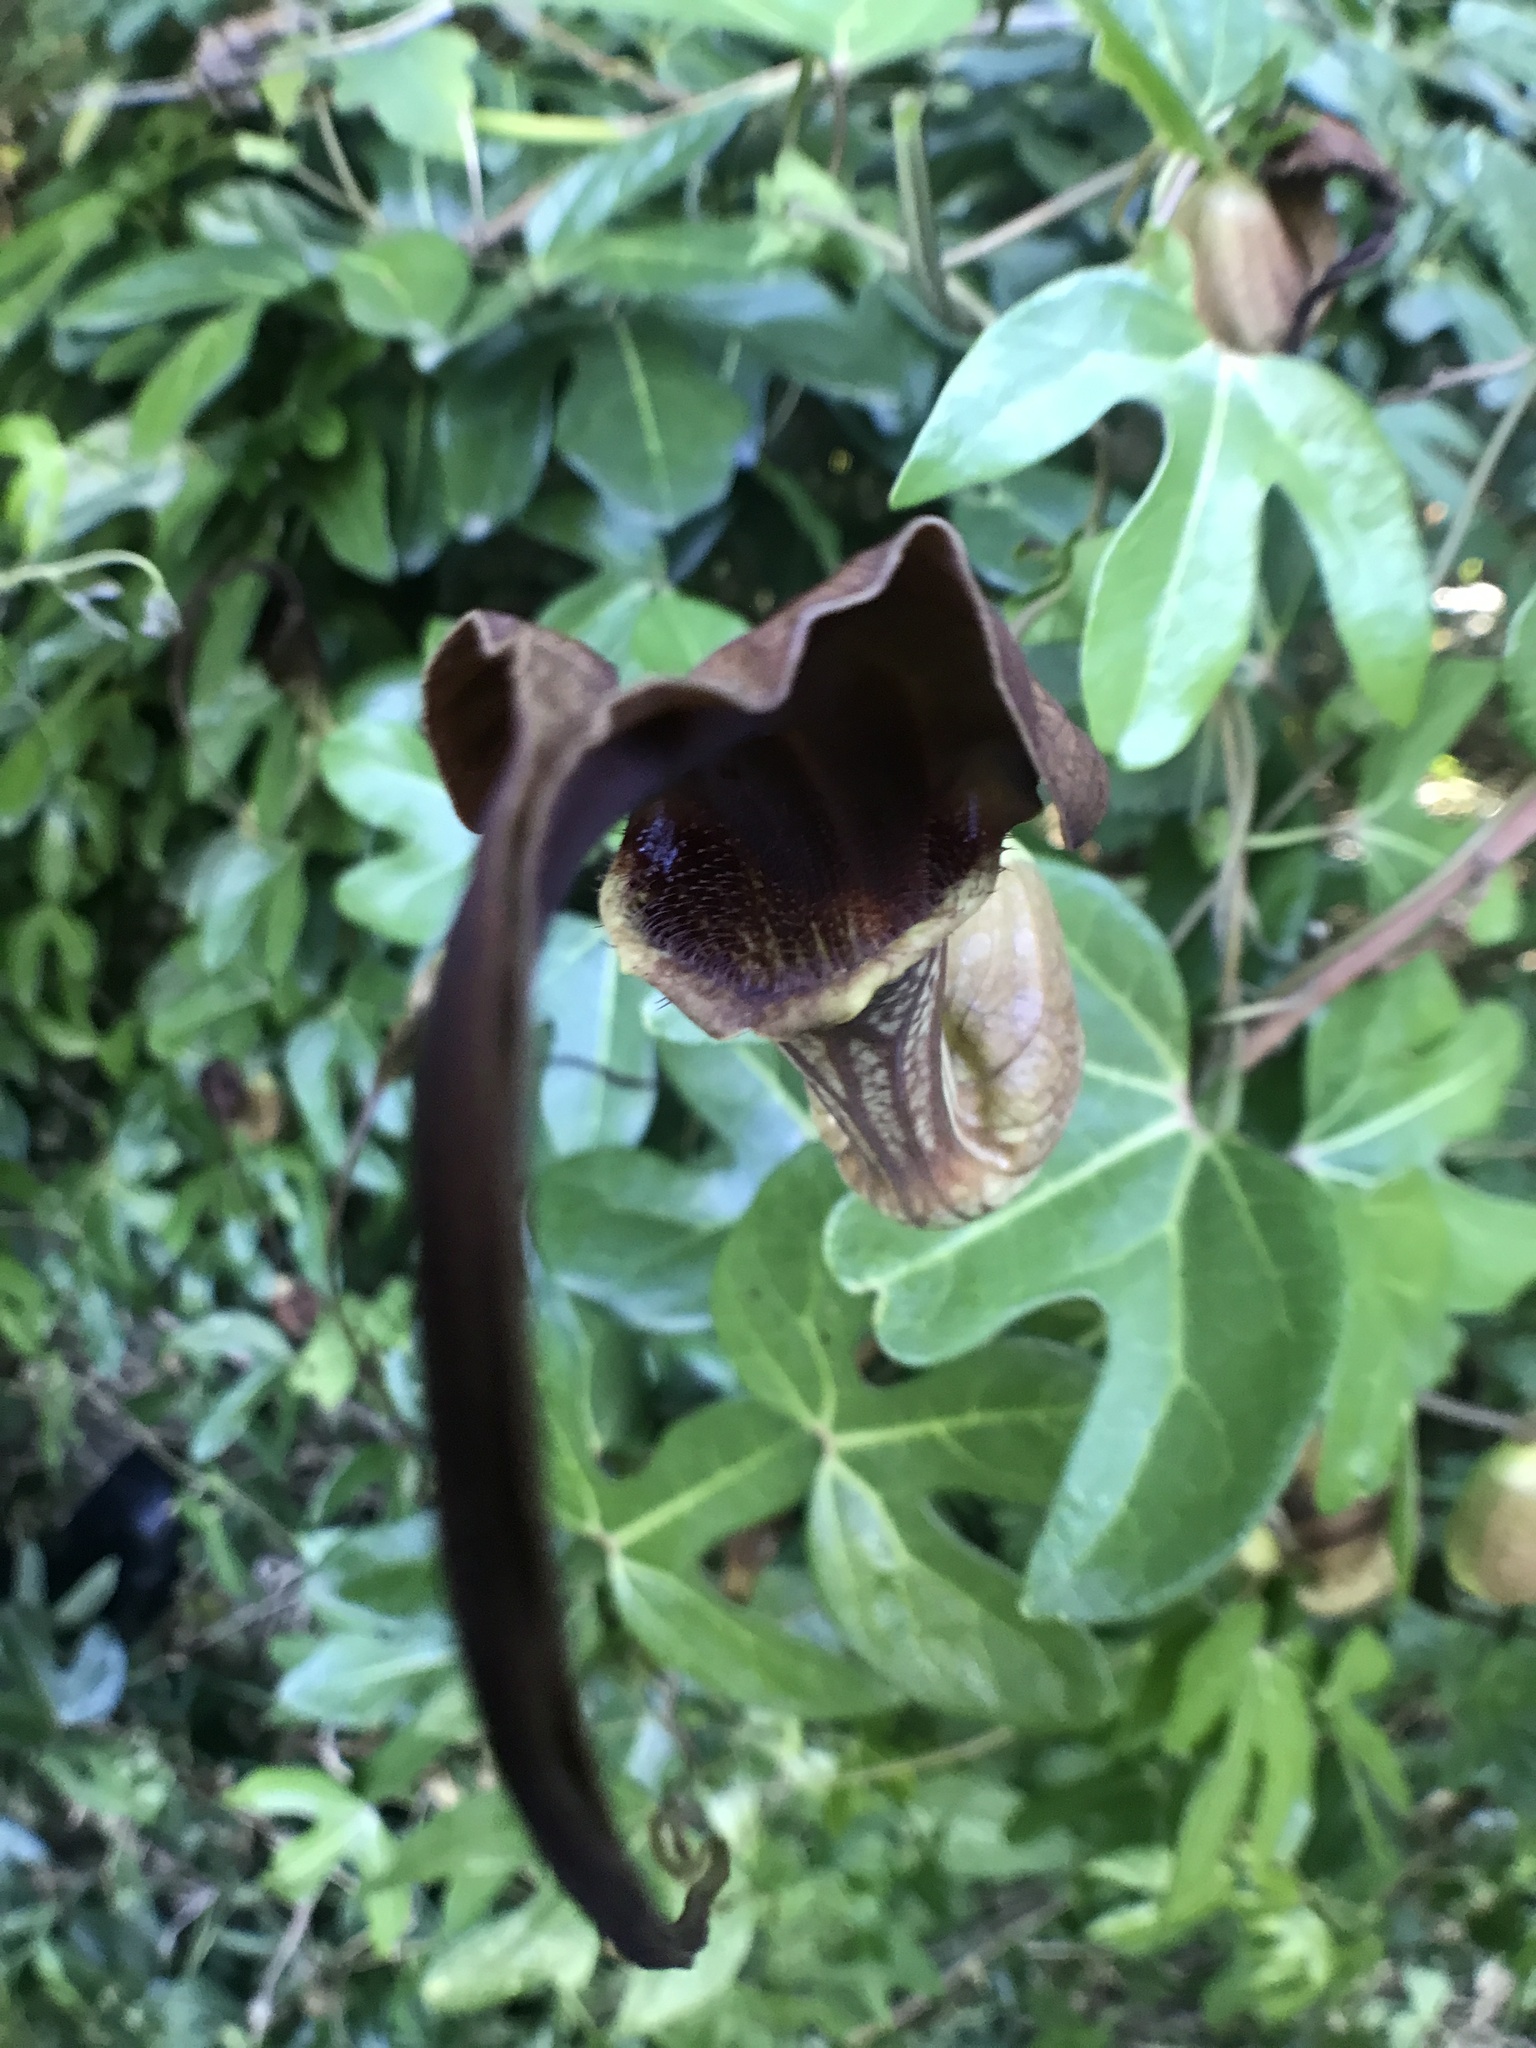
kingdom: Plantae
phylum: Tracheophyta
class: Magnoliopsida
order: Piperales
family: Aristolochiaceae
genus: Aristolochia
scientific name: Aristolochia macroura
